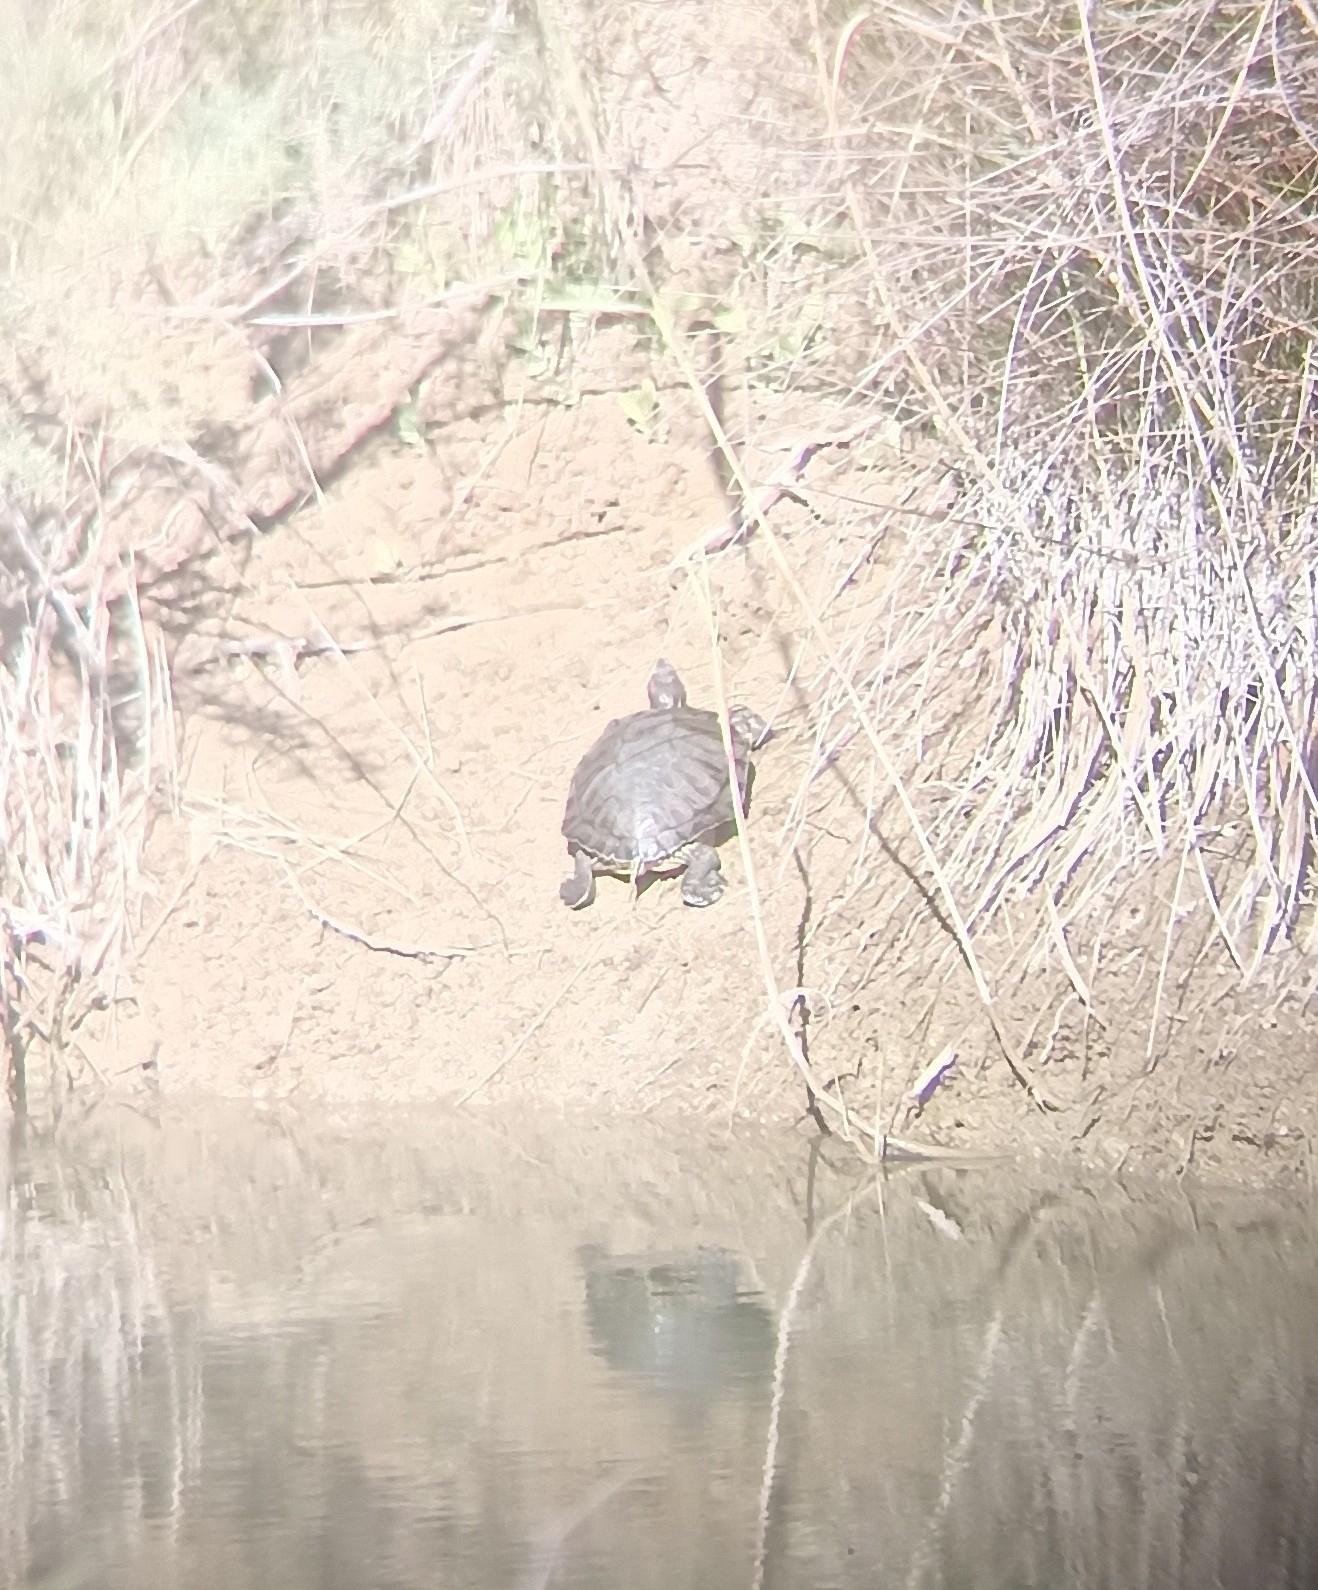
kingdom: Animalia
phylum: Chordata
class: Testudines
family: Emydidae
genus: Trachemys
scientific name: Trachemys scripta
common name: Slider
